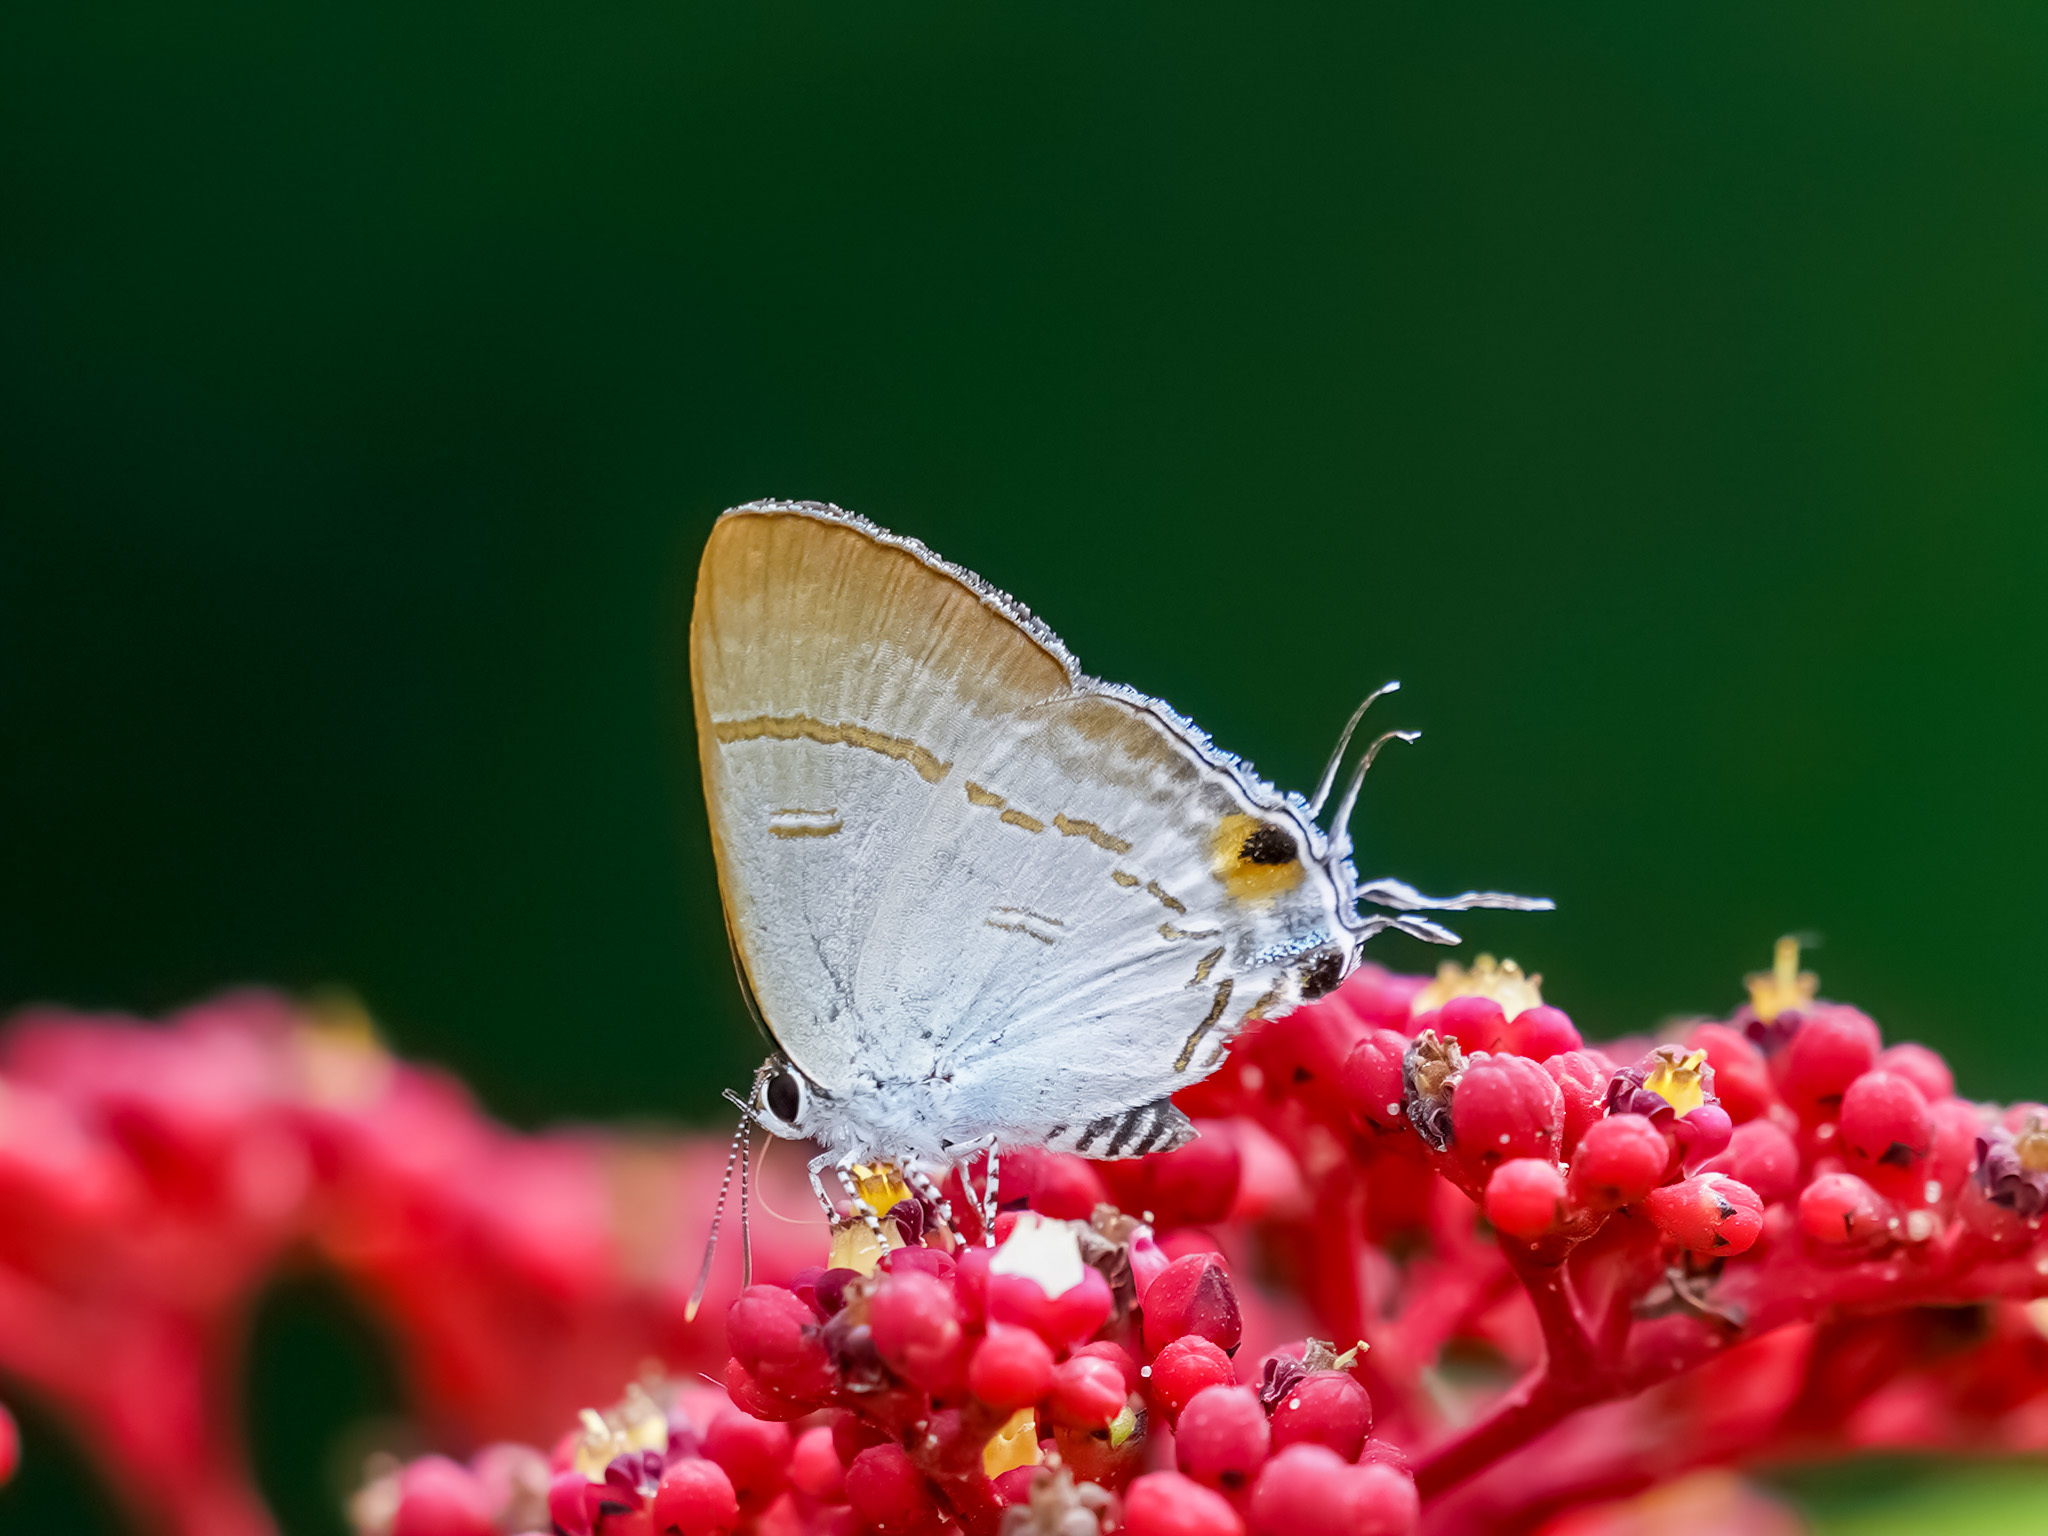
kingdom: Animalia
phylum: Arthropoda
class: Insecta
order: Lepidoptera
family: Lycaenidae
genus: Hypolycaena
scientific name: Hypolycaena erylus
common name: Common tit
